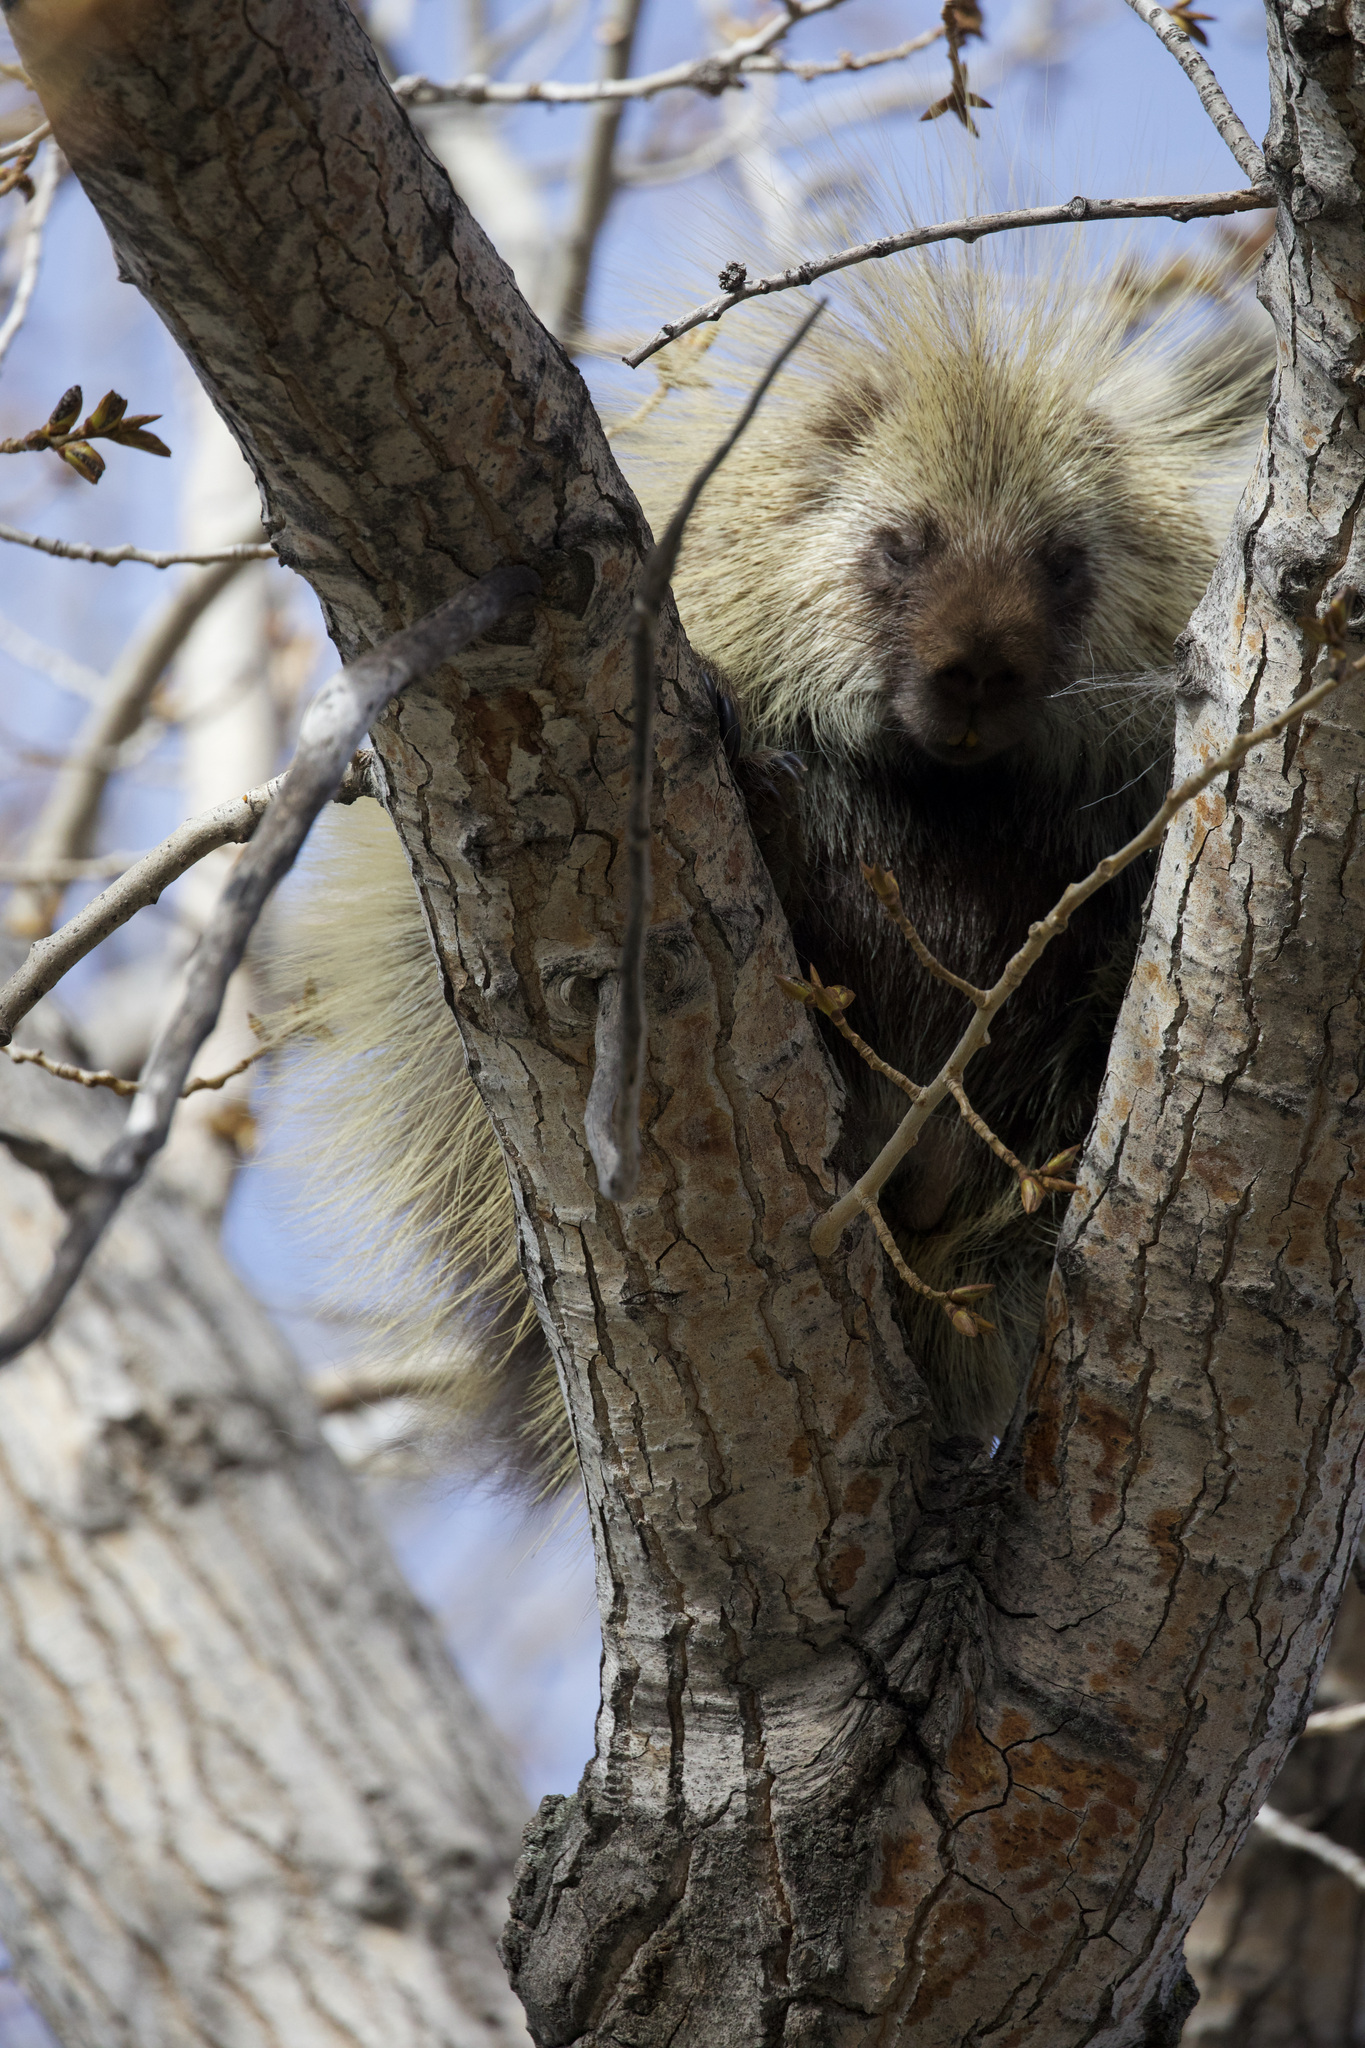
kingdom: Animalia
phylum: Chordata
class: Mammalia
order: Rodentia
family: Erethizontidae
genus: Erethizon
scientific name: Erethizon dorsatus
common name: North american porcupine
